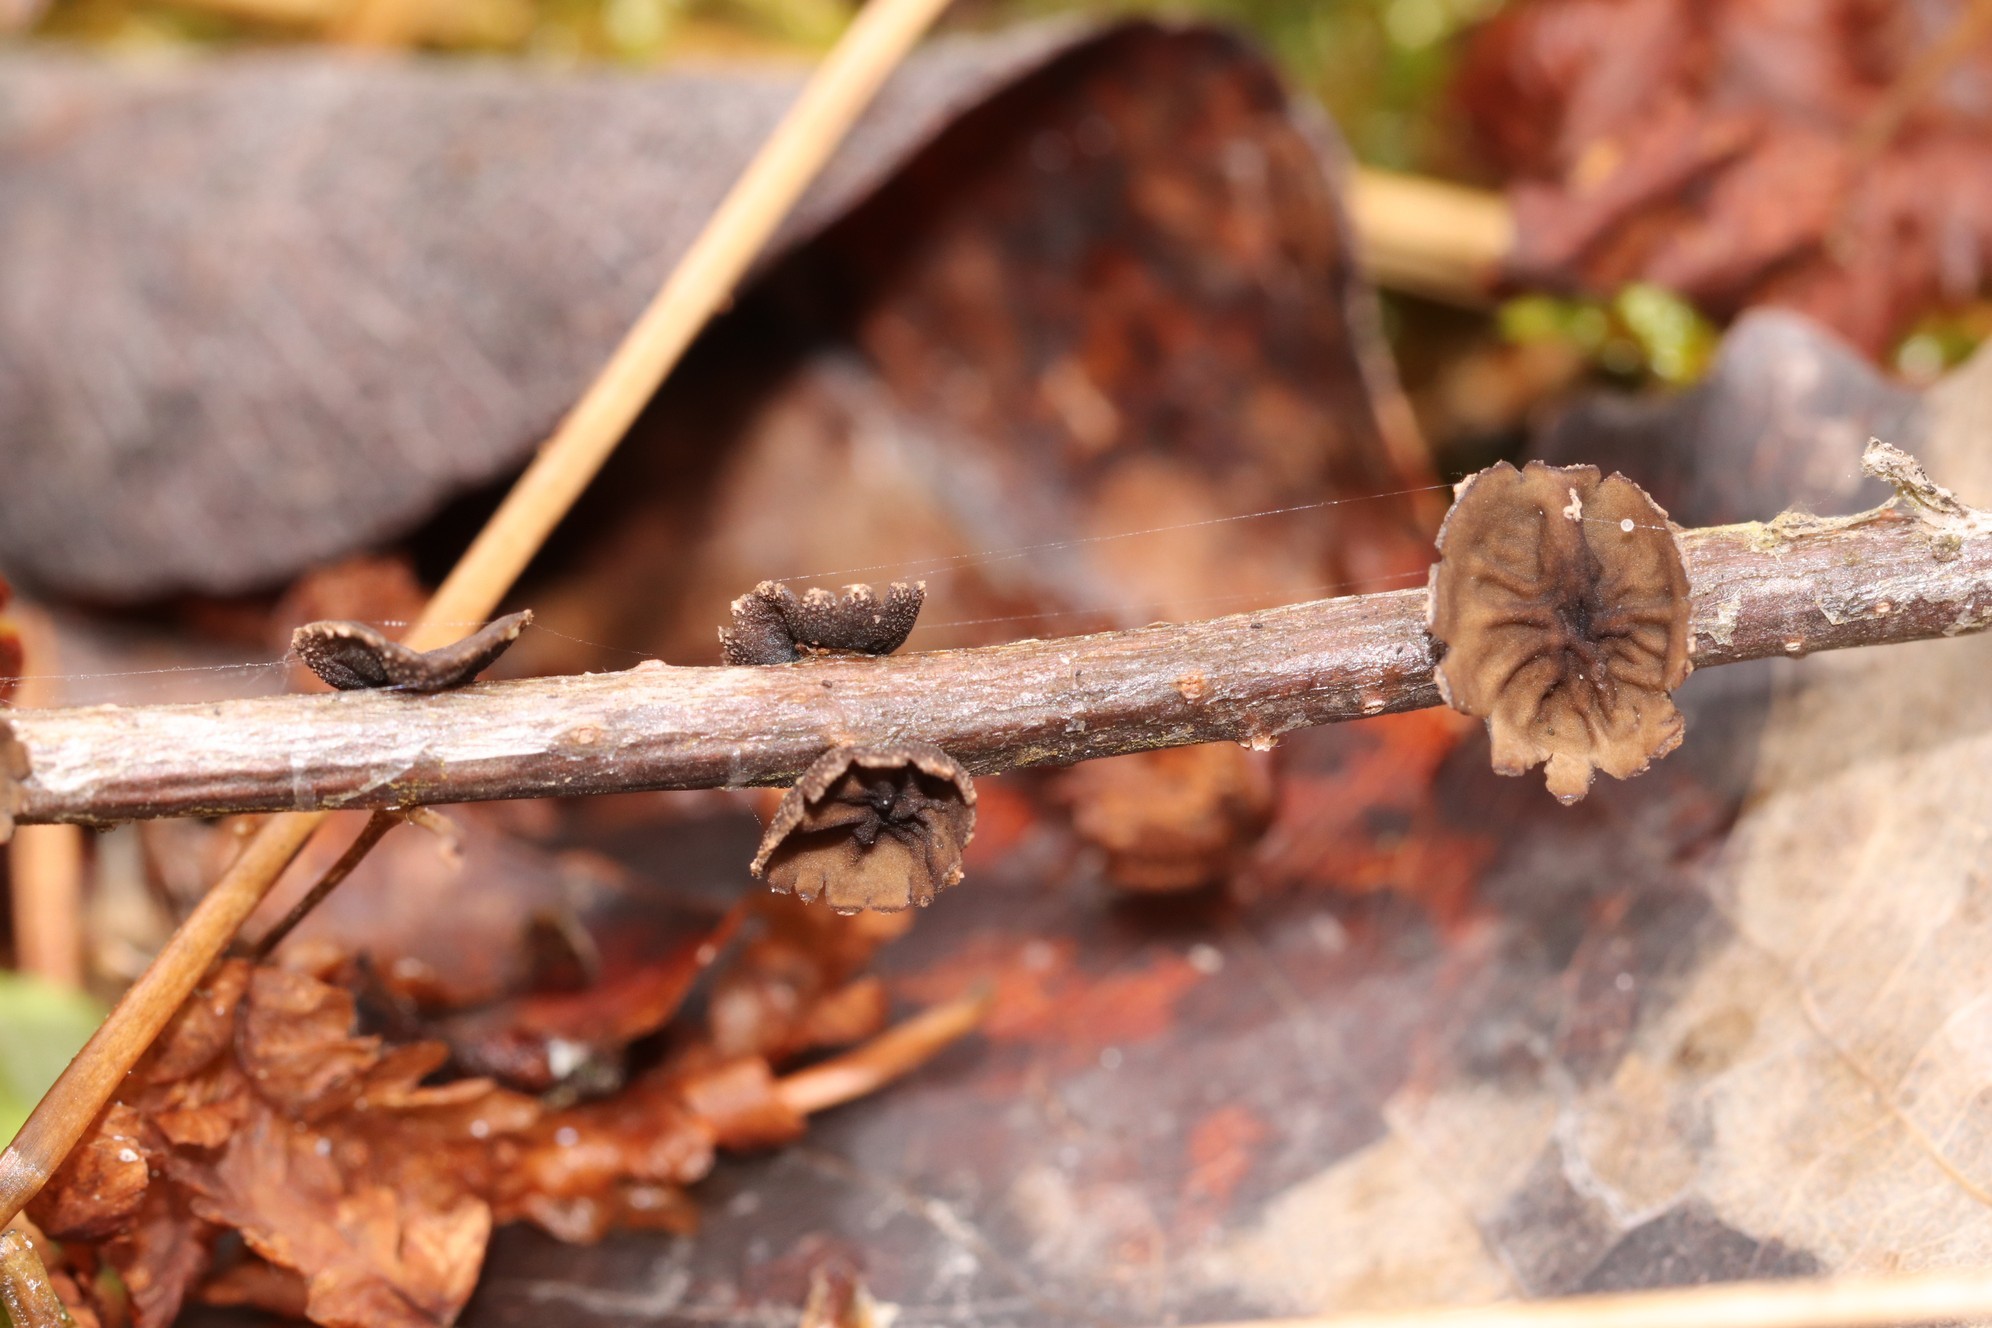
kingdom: Fungi
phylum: Ascomycota
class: Leotiomycetes
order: Helotiales
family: Sclerotiniaceae
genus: Sclerencoelia
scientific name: Sclerencoelia fascicularis
